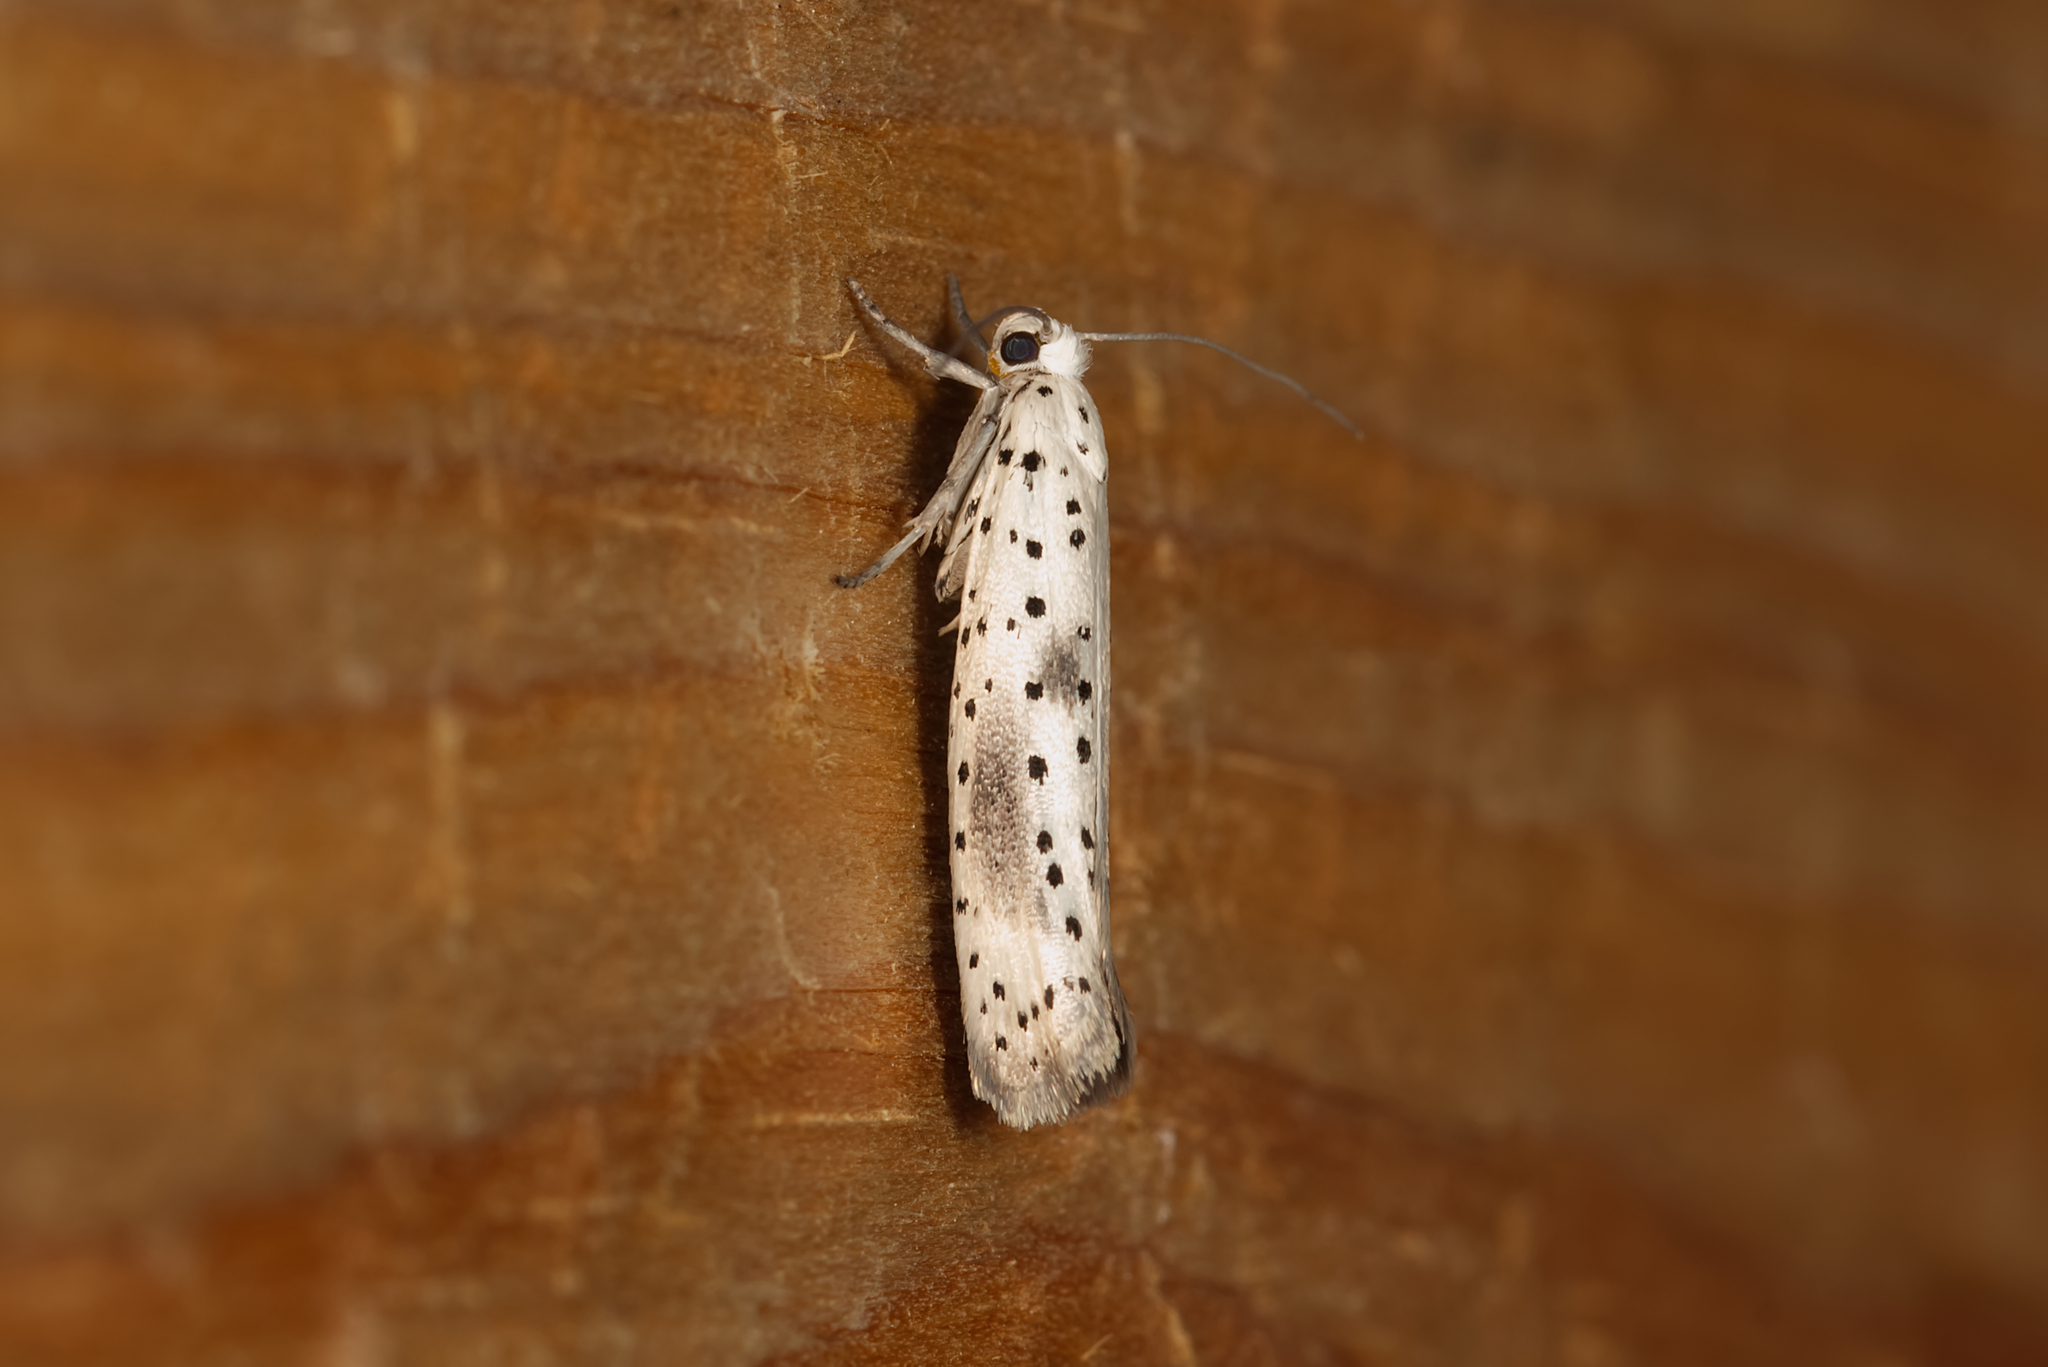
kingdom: Animalia
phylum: Arthropoda
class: Insecta
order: Lepidoptera
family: Yponomeutidae
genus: Yponomeuta
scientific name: Yponomeuta irrorella
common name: Scarce ermine
